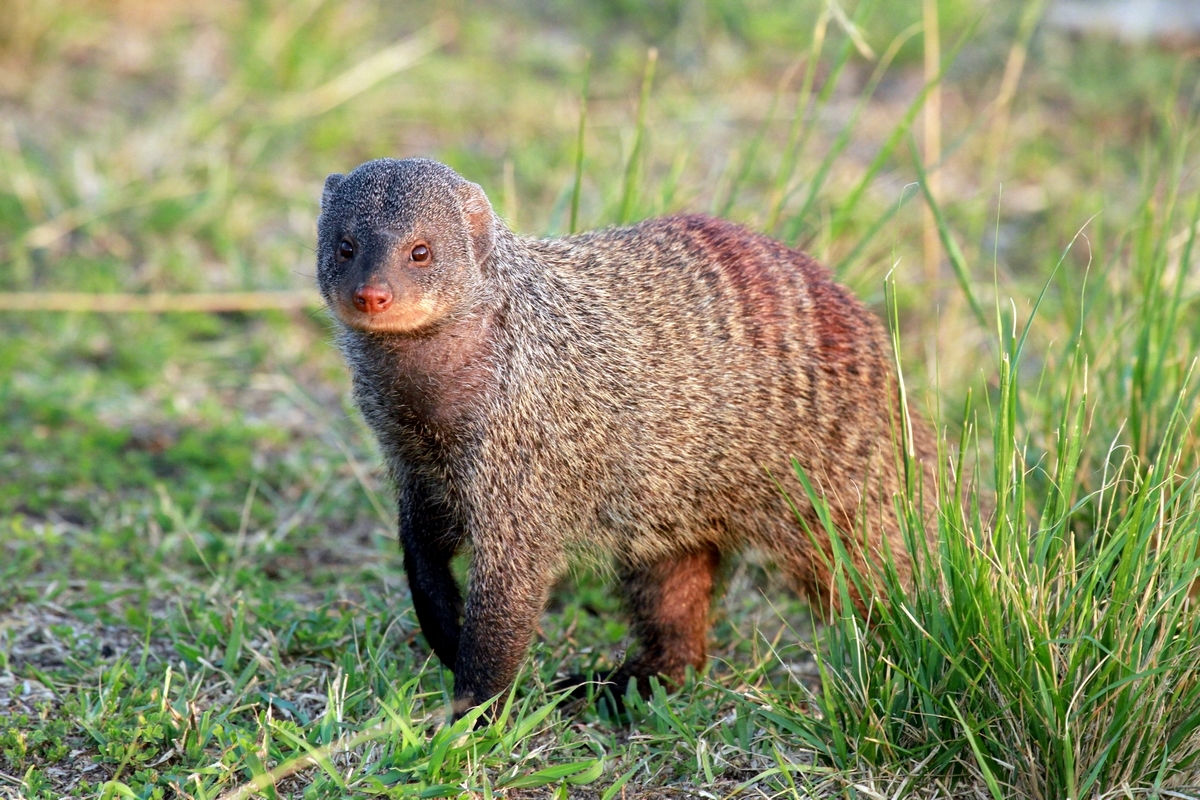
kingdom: Animalia
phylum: Chordata
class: Mammalia
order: Carnivora
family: Herpestidae
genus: Mungos
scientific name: Mungos mungo
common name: Banded mongoose
